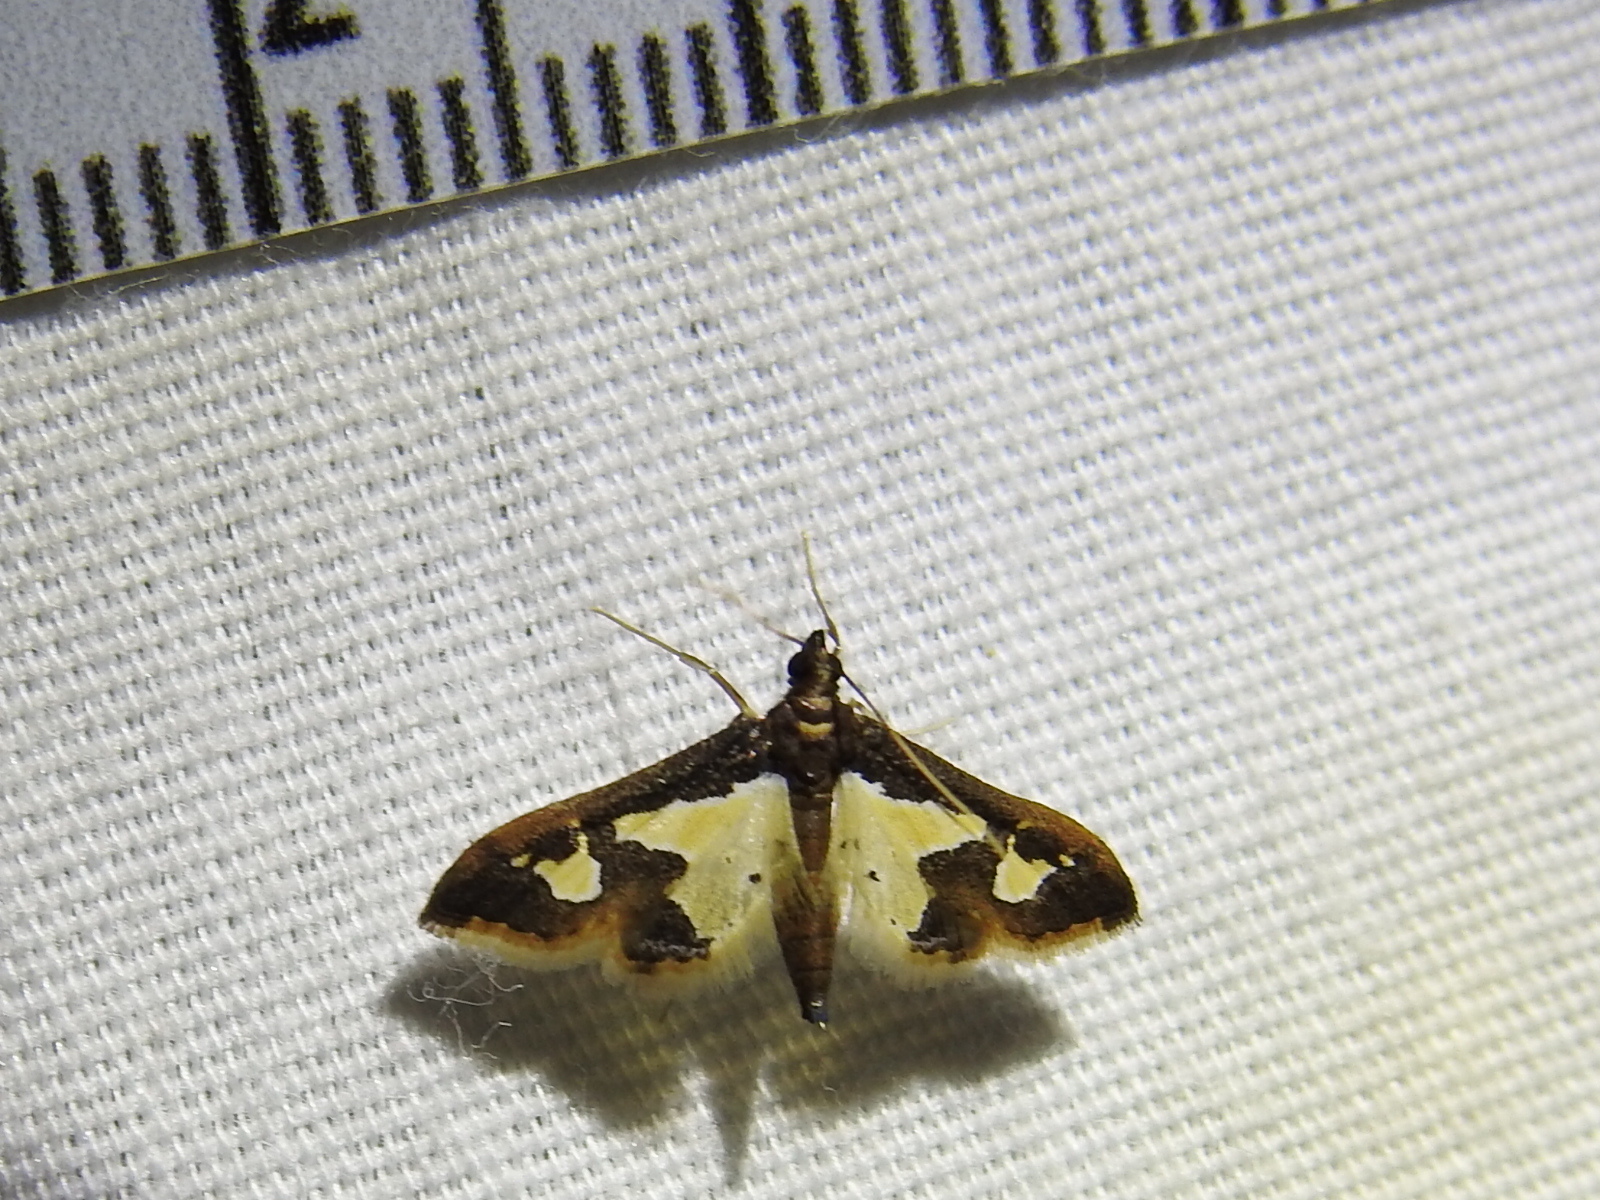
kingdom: Animalia
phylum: Arthropoda
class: Insecta
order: Lepidoptera
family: Crambidae
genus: Gonocausta
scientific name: Gonocausta sabinalis
